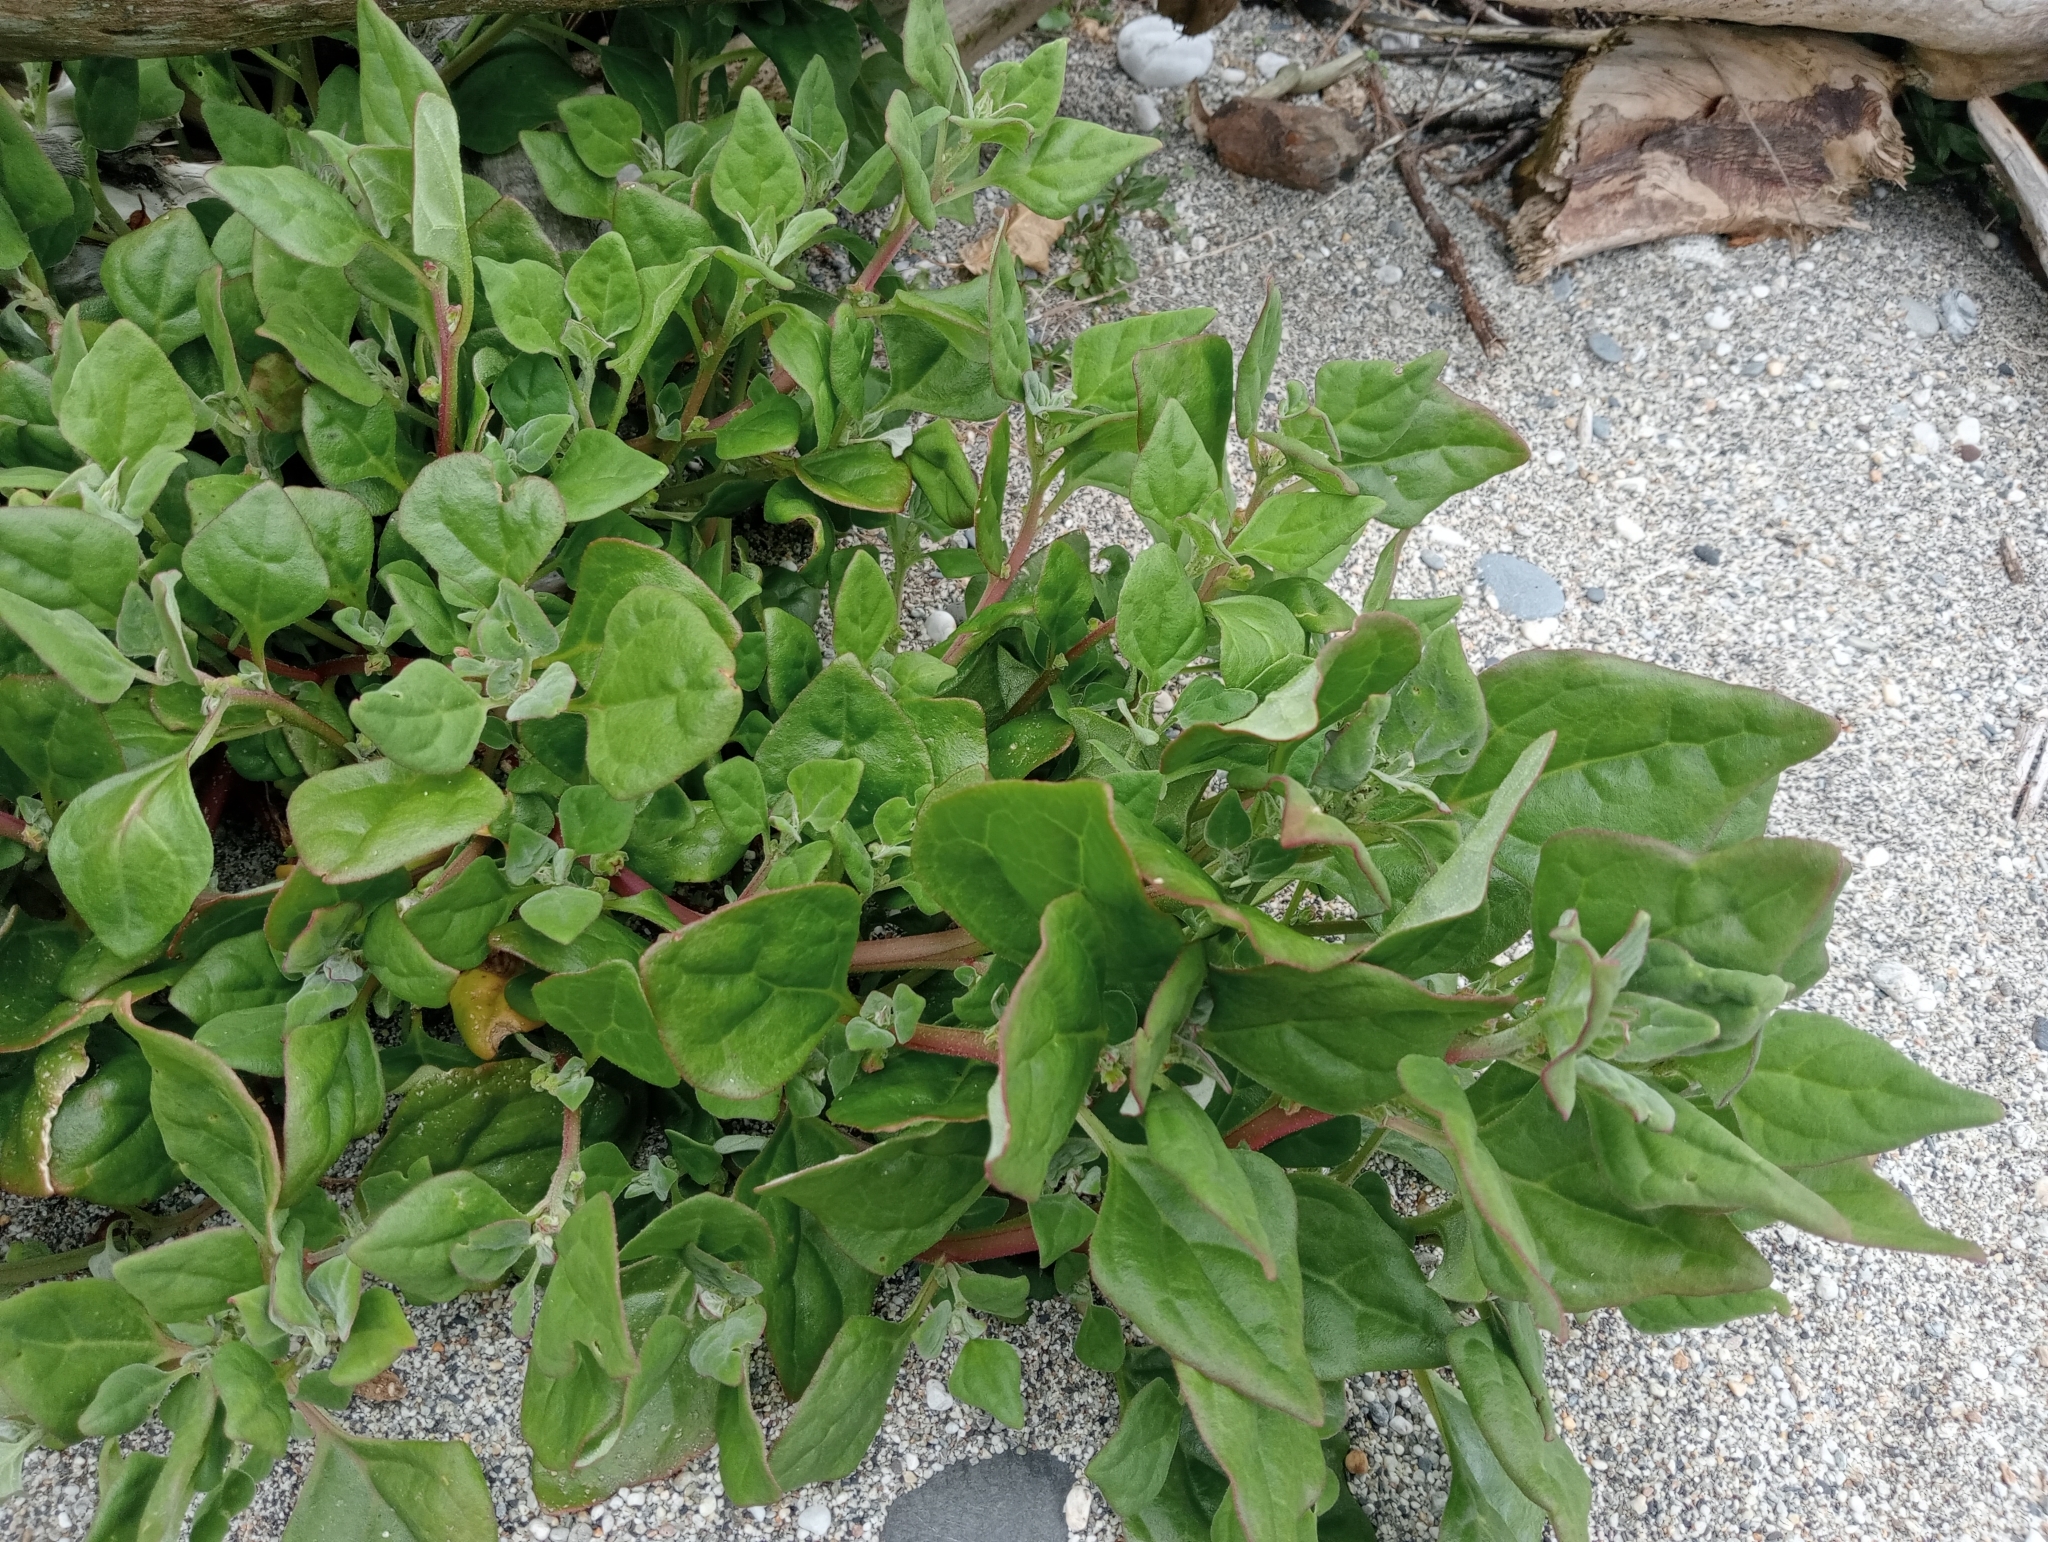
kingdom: Plantae
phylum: Tracheophyta
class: Magnoliopsida
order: Caryophyllales
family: Aizoaceae
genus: Tetragonia
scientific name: Tetragonia tetragonoides
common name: New zealand-spinach
